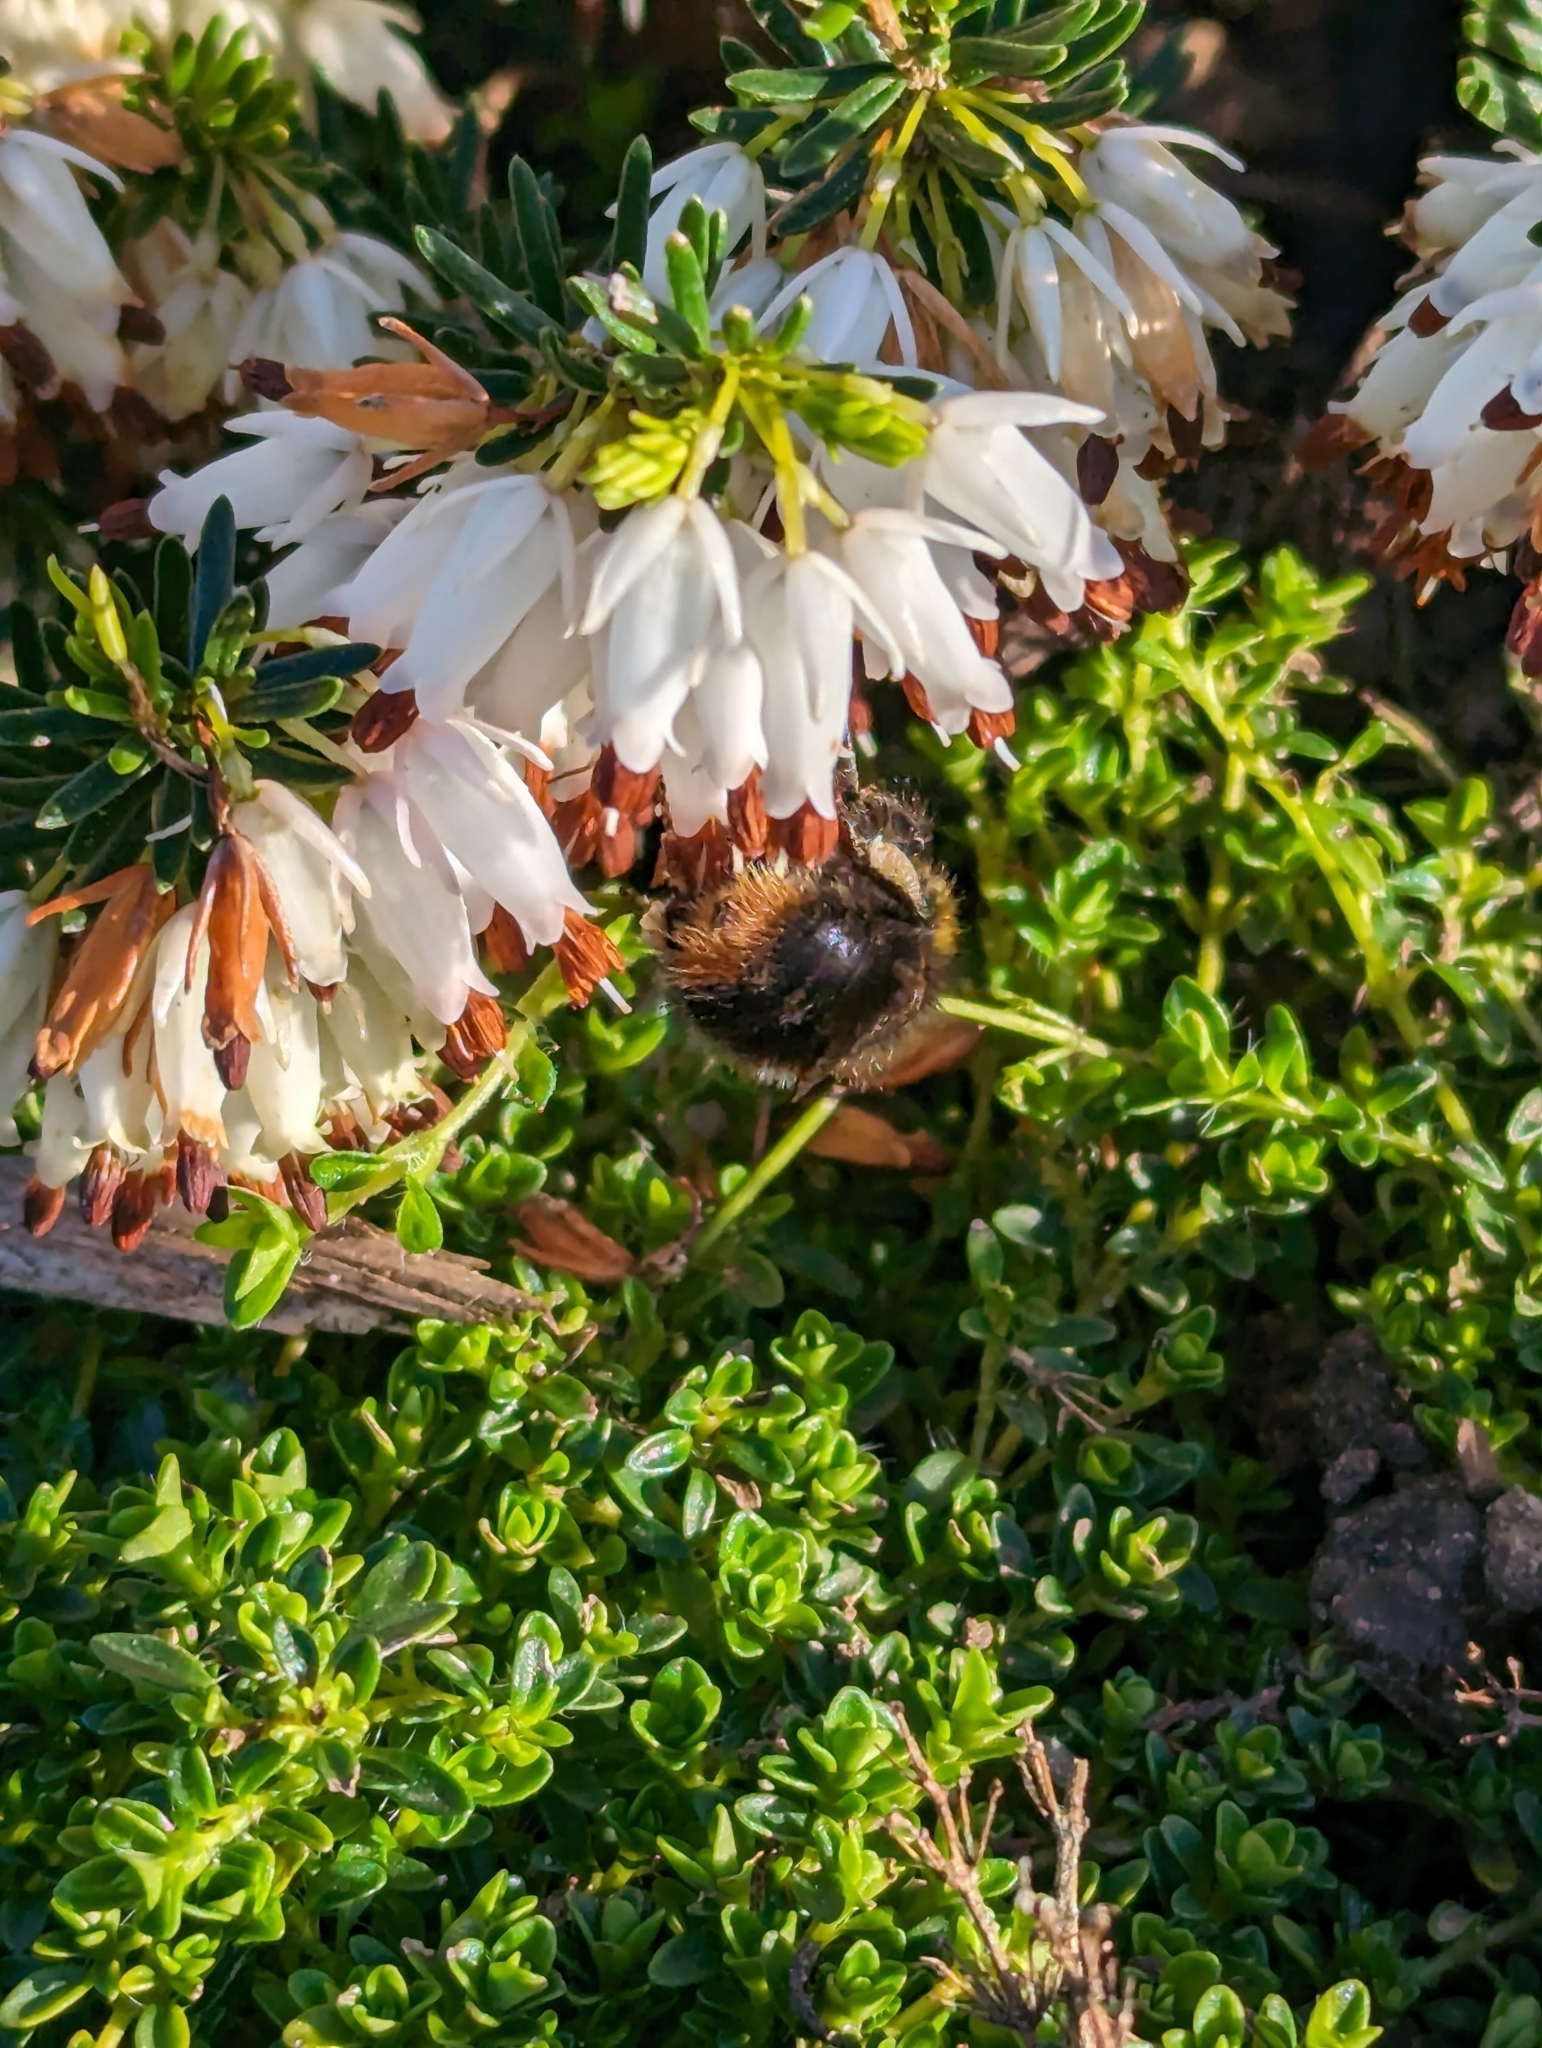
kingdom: Animalia
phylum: Arthropoda
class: Insecta
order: Hymenoptera
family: Apidae
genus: Bombus
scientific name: Bombus pratorum
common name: Early humble-bee
